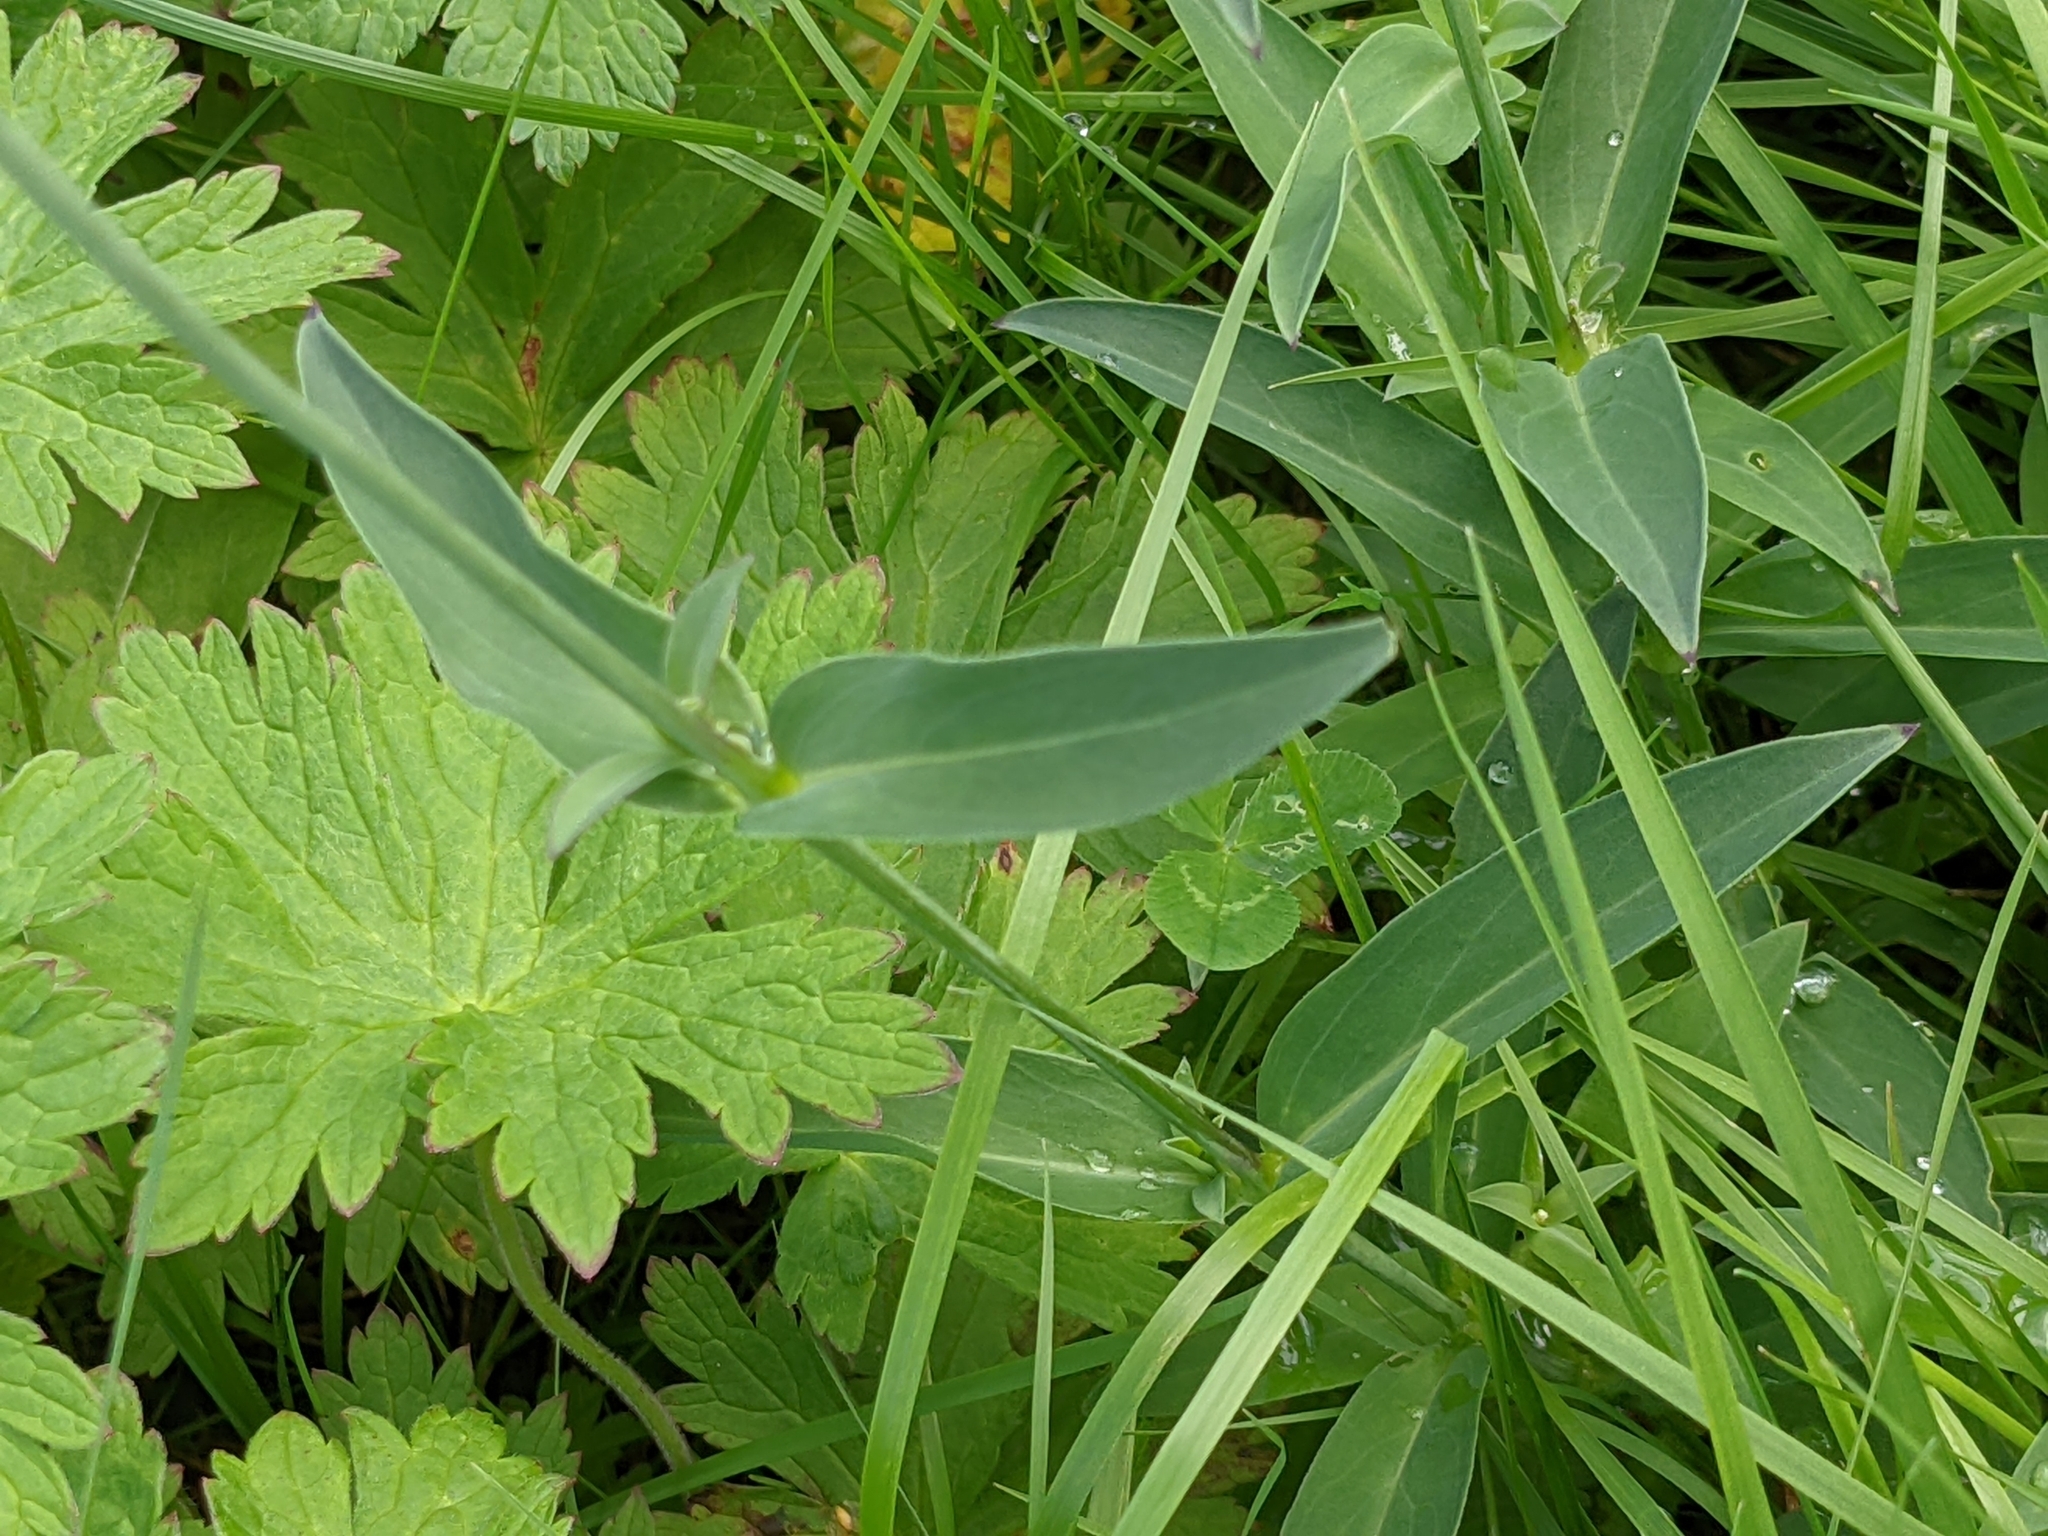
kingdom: Plantae
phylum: Tracheophyta
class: Magnoliopsida
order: Caryophyllales
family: Caryophyllaceae
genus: Silene
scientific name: Silene vulgaris
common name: Bladder campion
